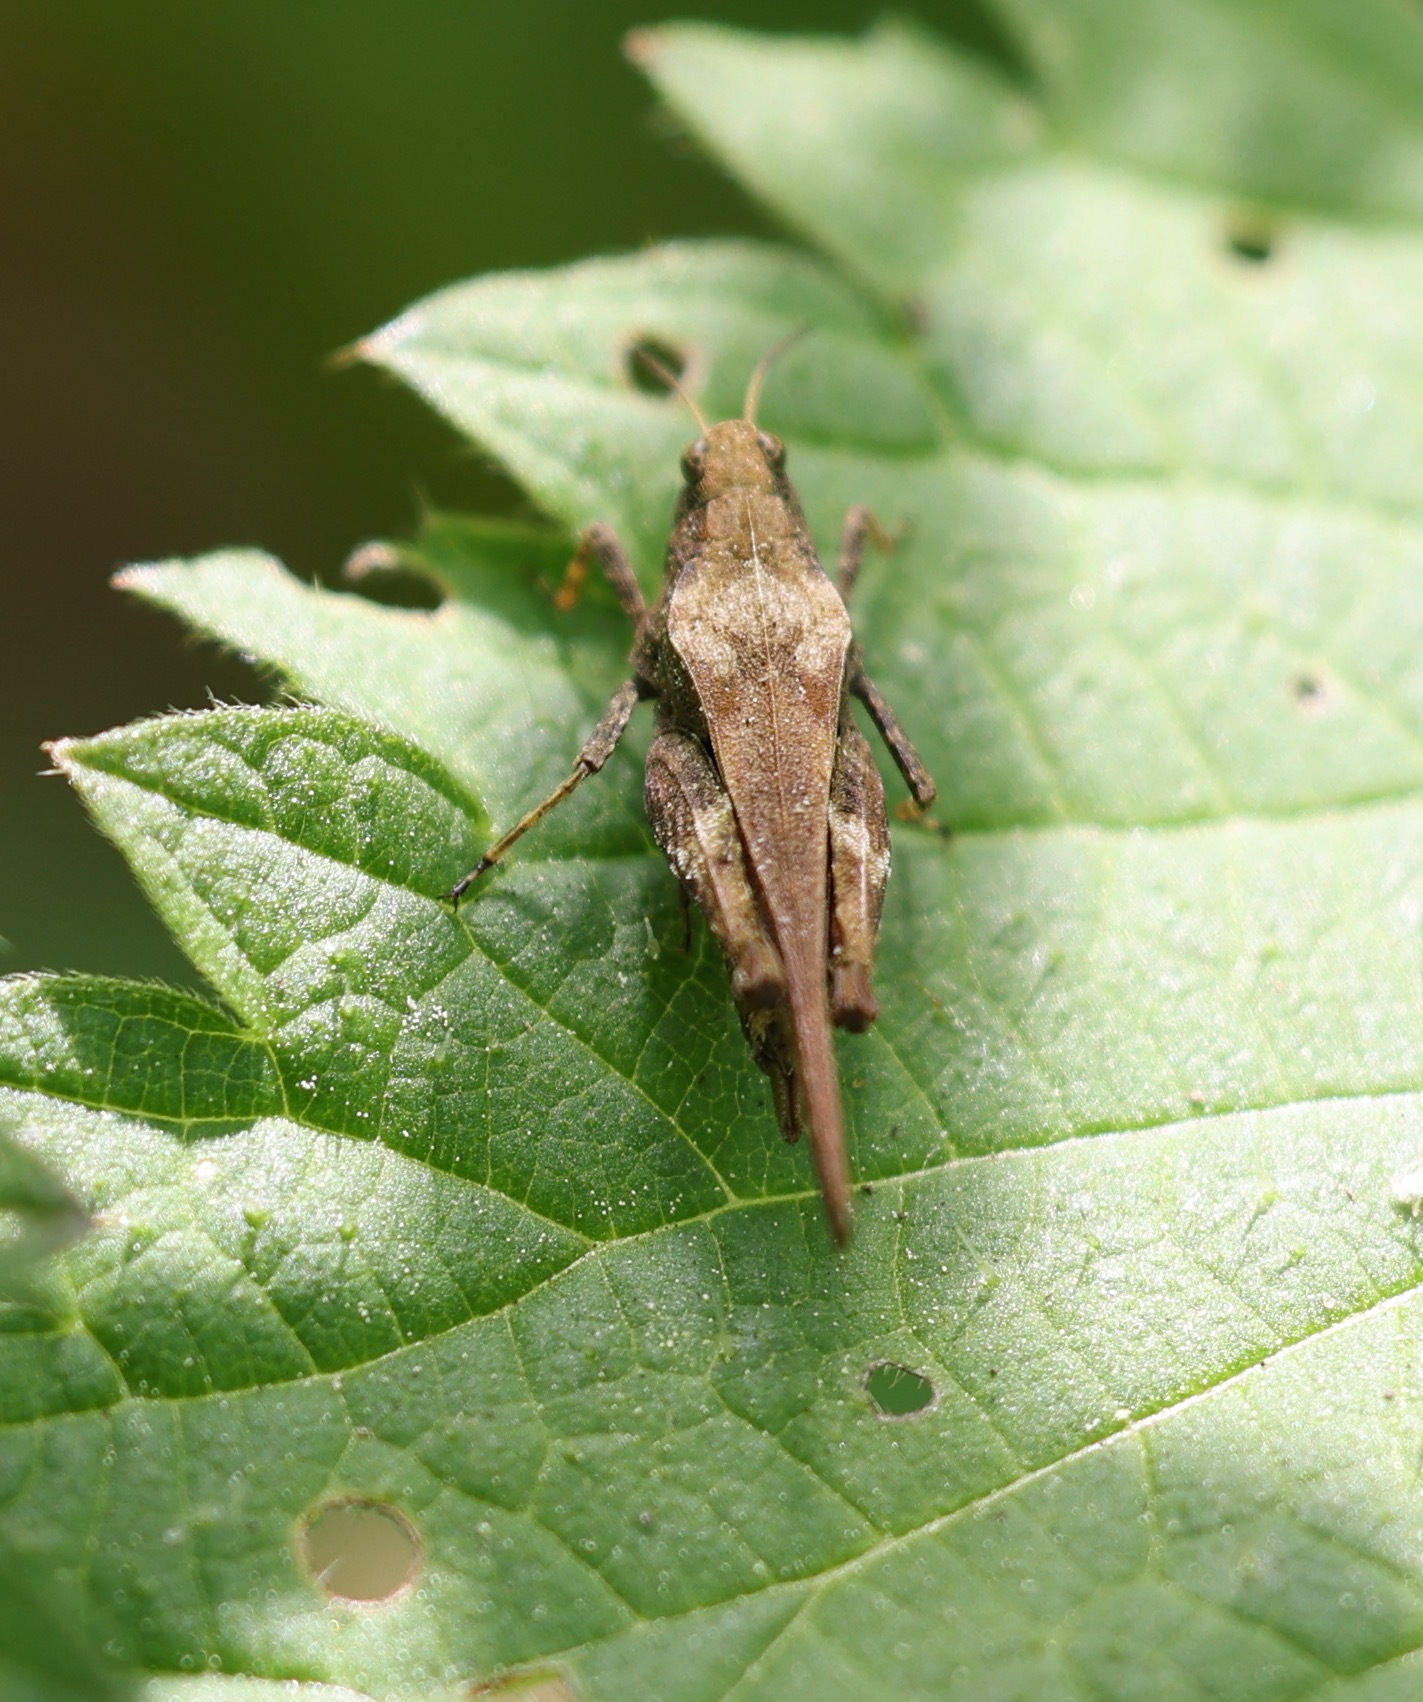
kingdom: Animalia
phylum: Arthropoda
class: Insecta
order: Orthoptera
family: Tetrigidae
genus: Tetrix
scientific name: Tetrix subulata
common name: Slender ground-hopper
